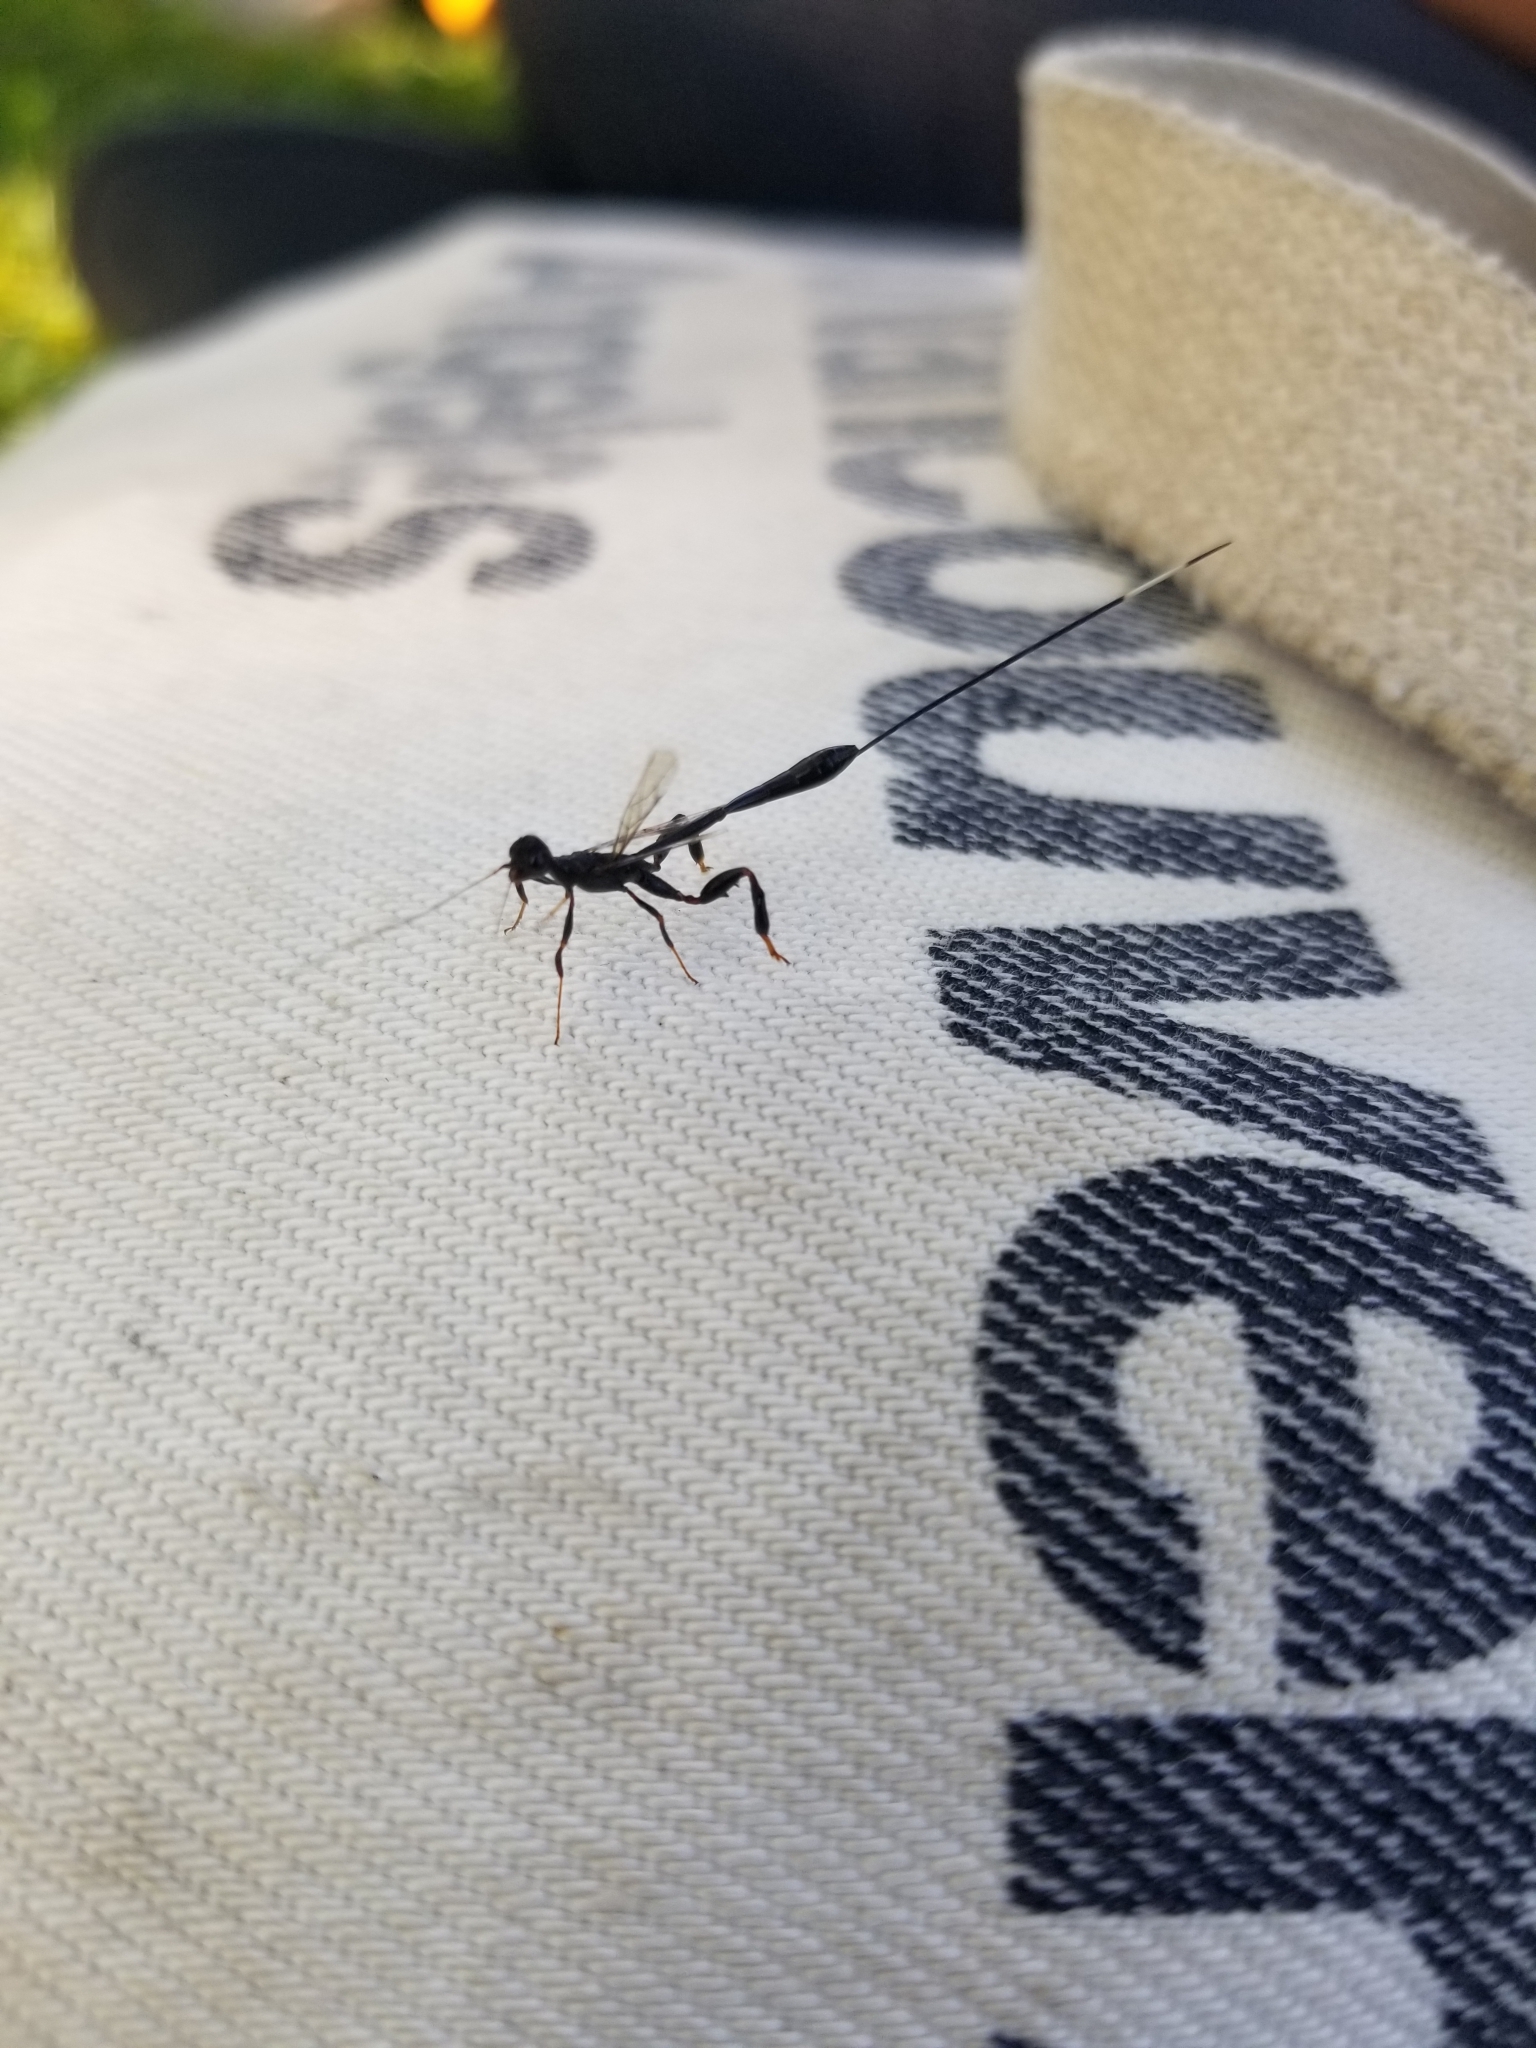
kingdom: Animalia
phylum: Arthropoda
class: Insecta
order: Hymenoptera
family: Stephanidae
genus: Megischus
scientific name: Megischus
